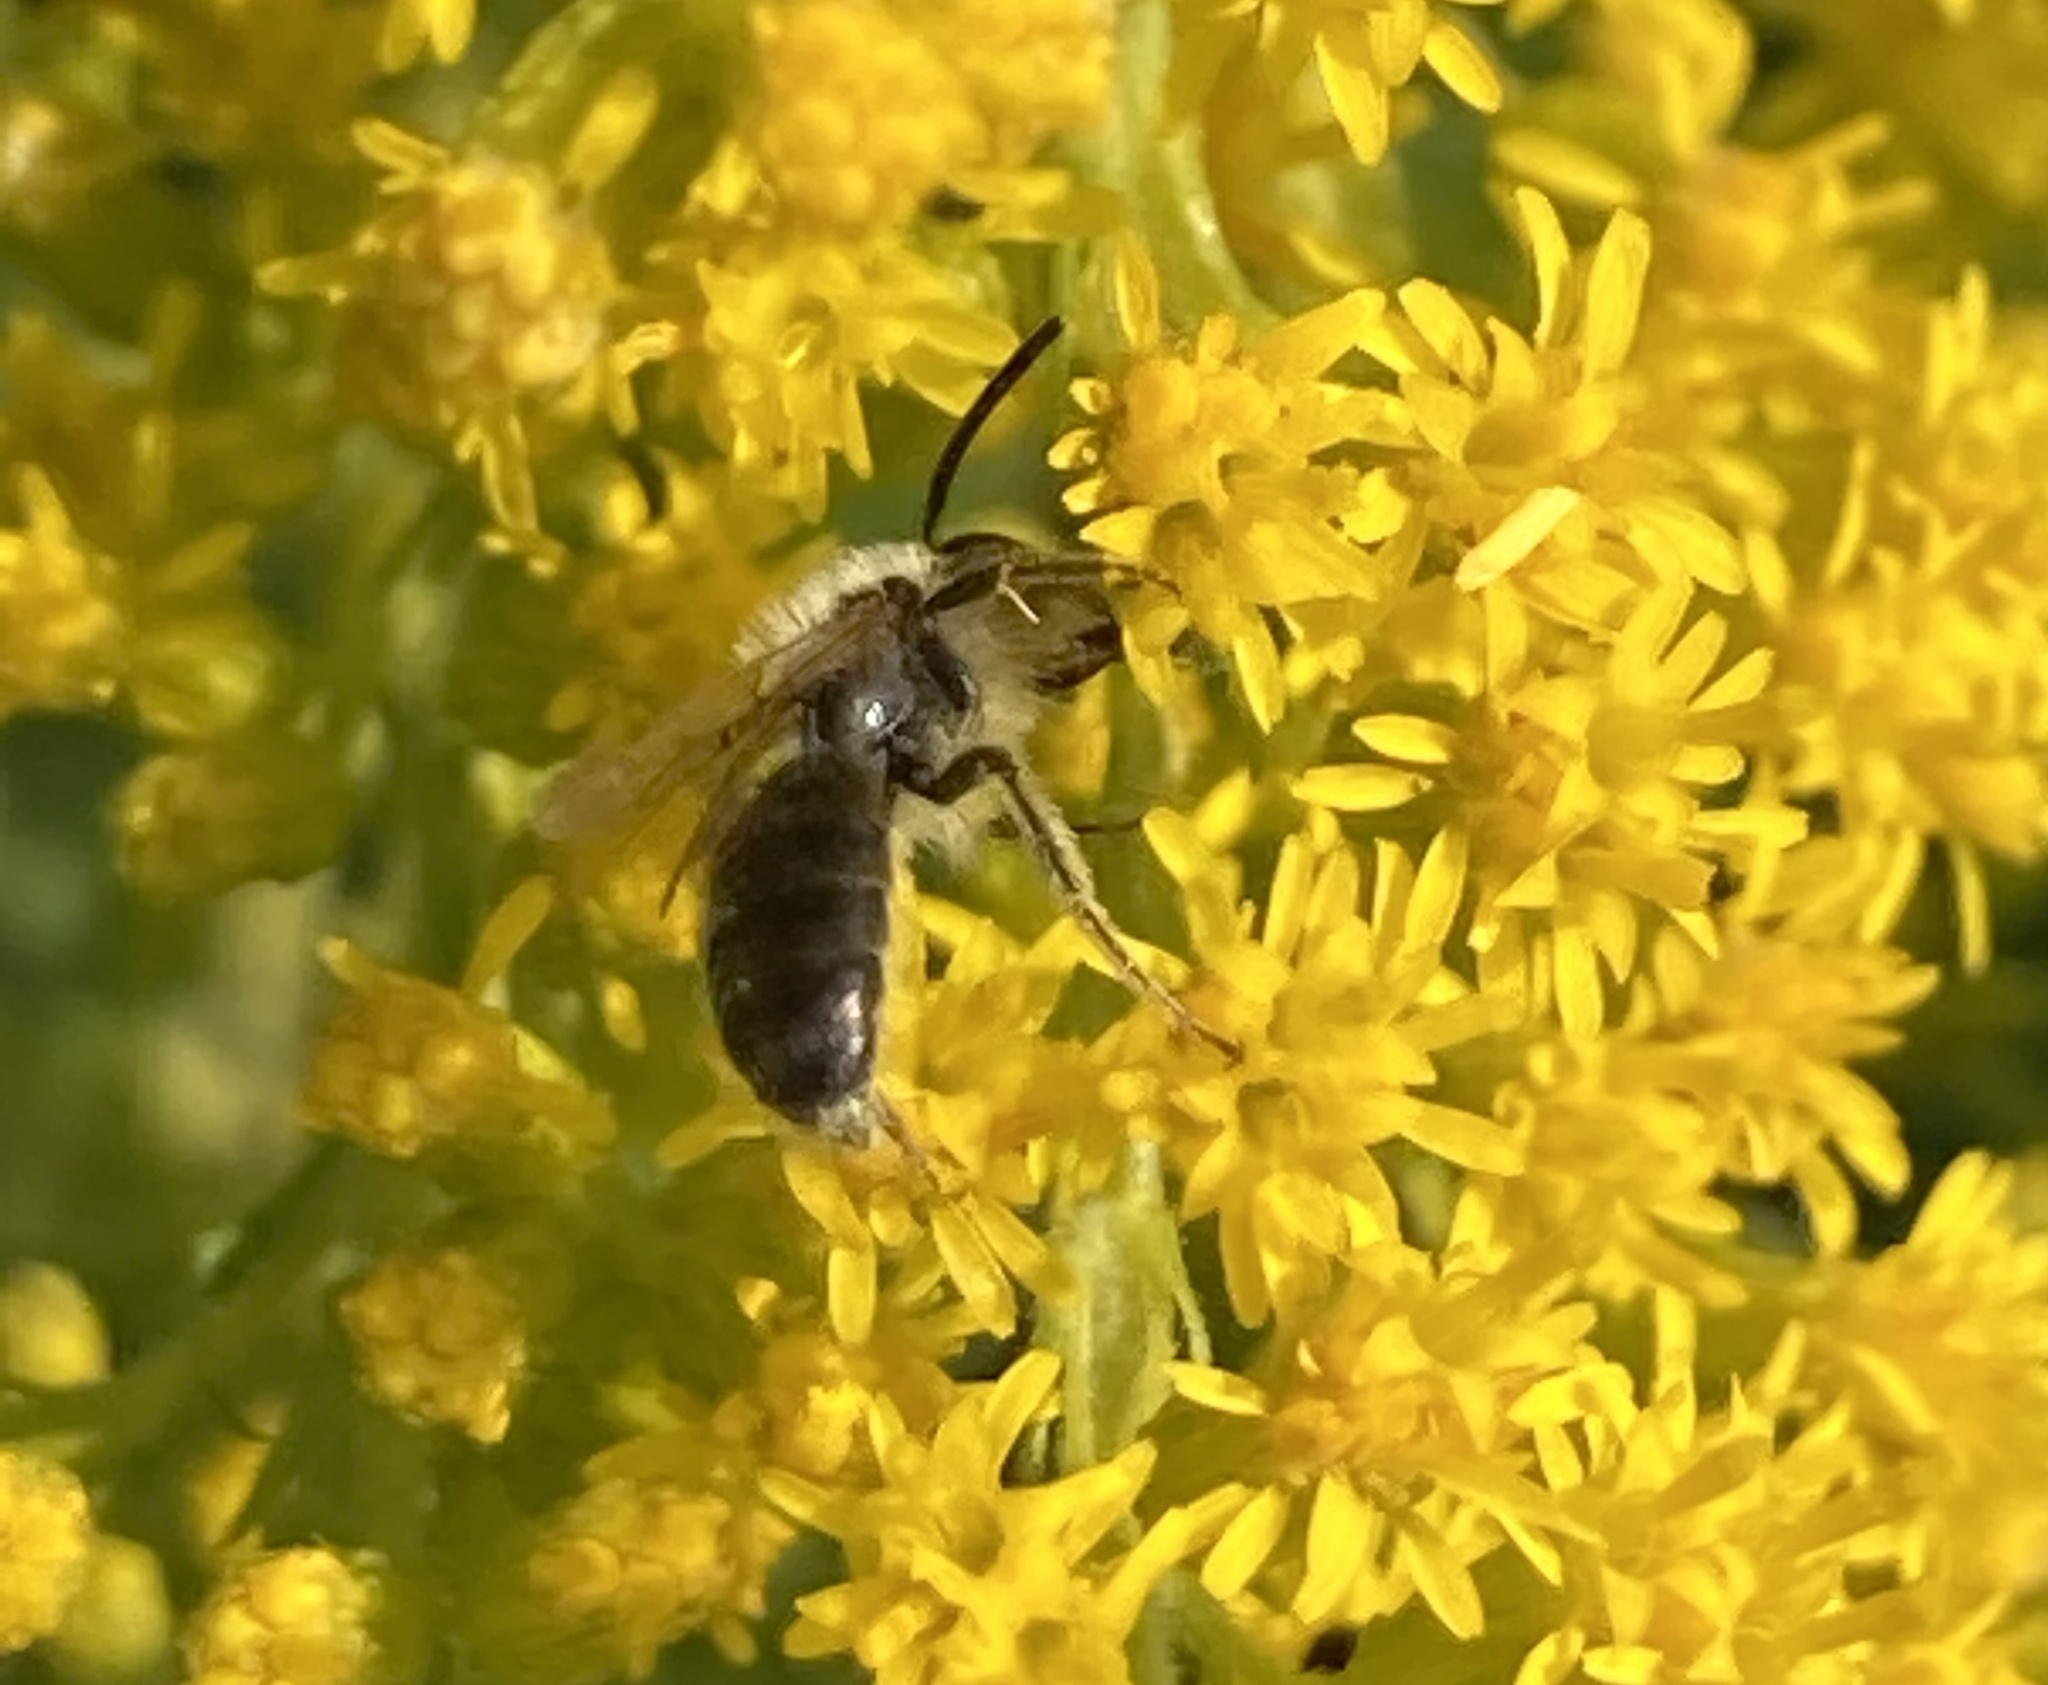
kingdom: Animalia
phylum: Arthropoda
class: Insecta
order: Hymenoptera
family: Andrenidae
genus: Andrena
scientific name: Andrena
